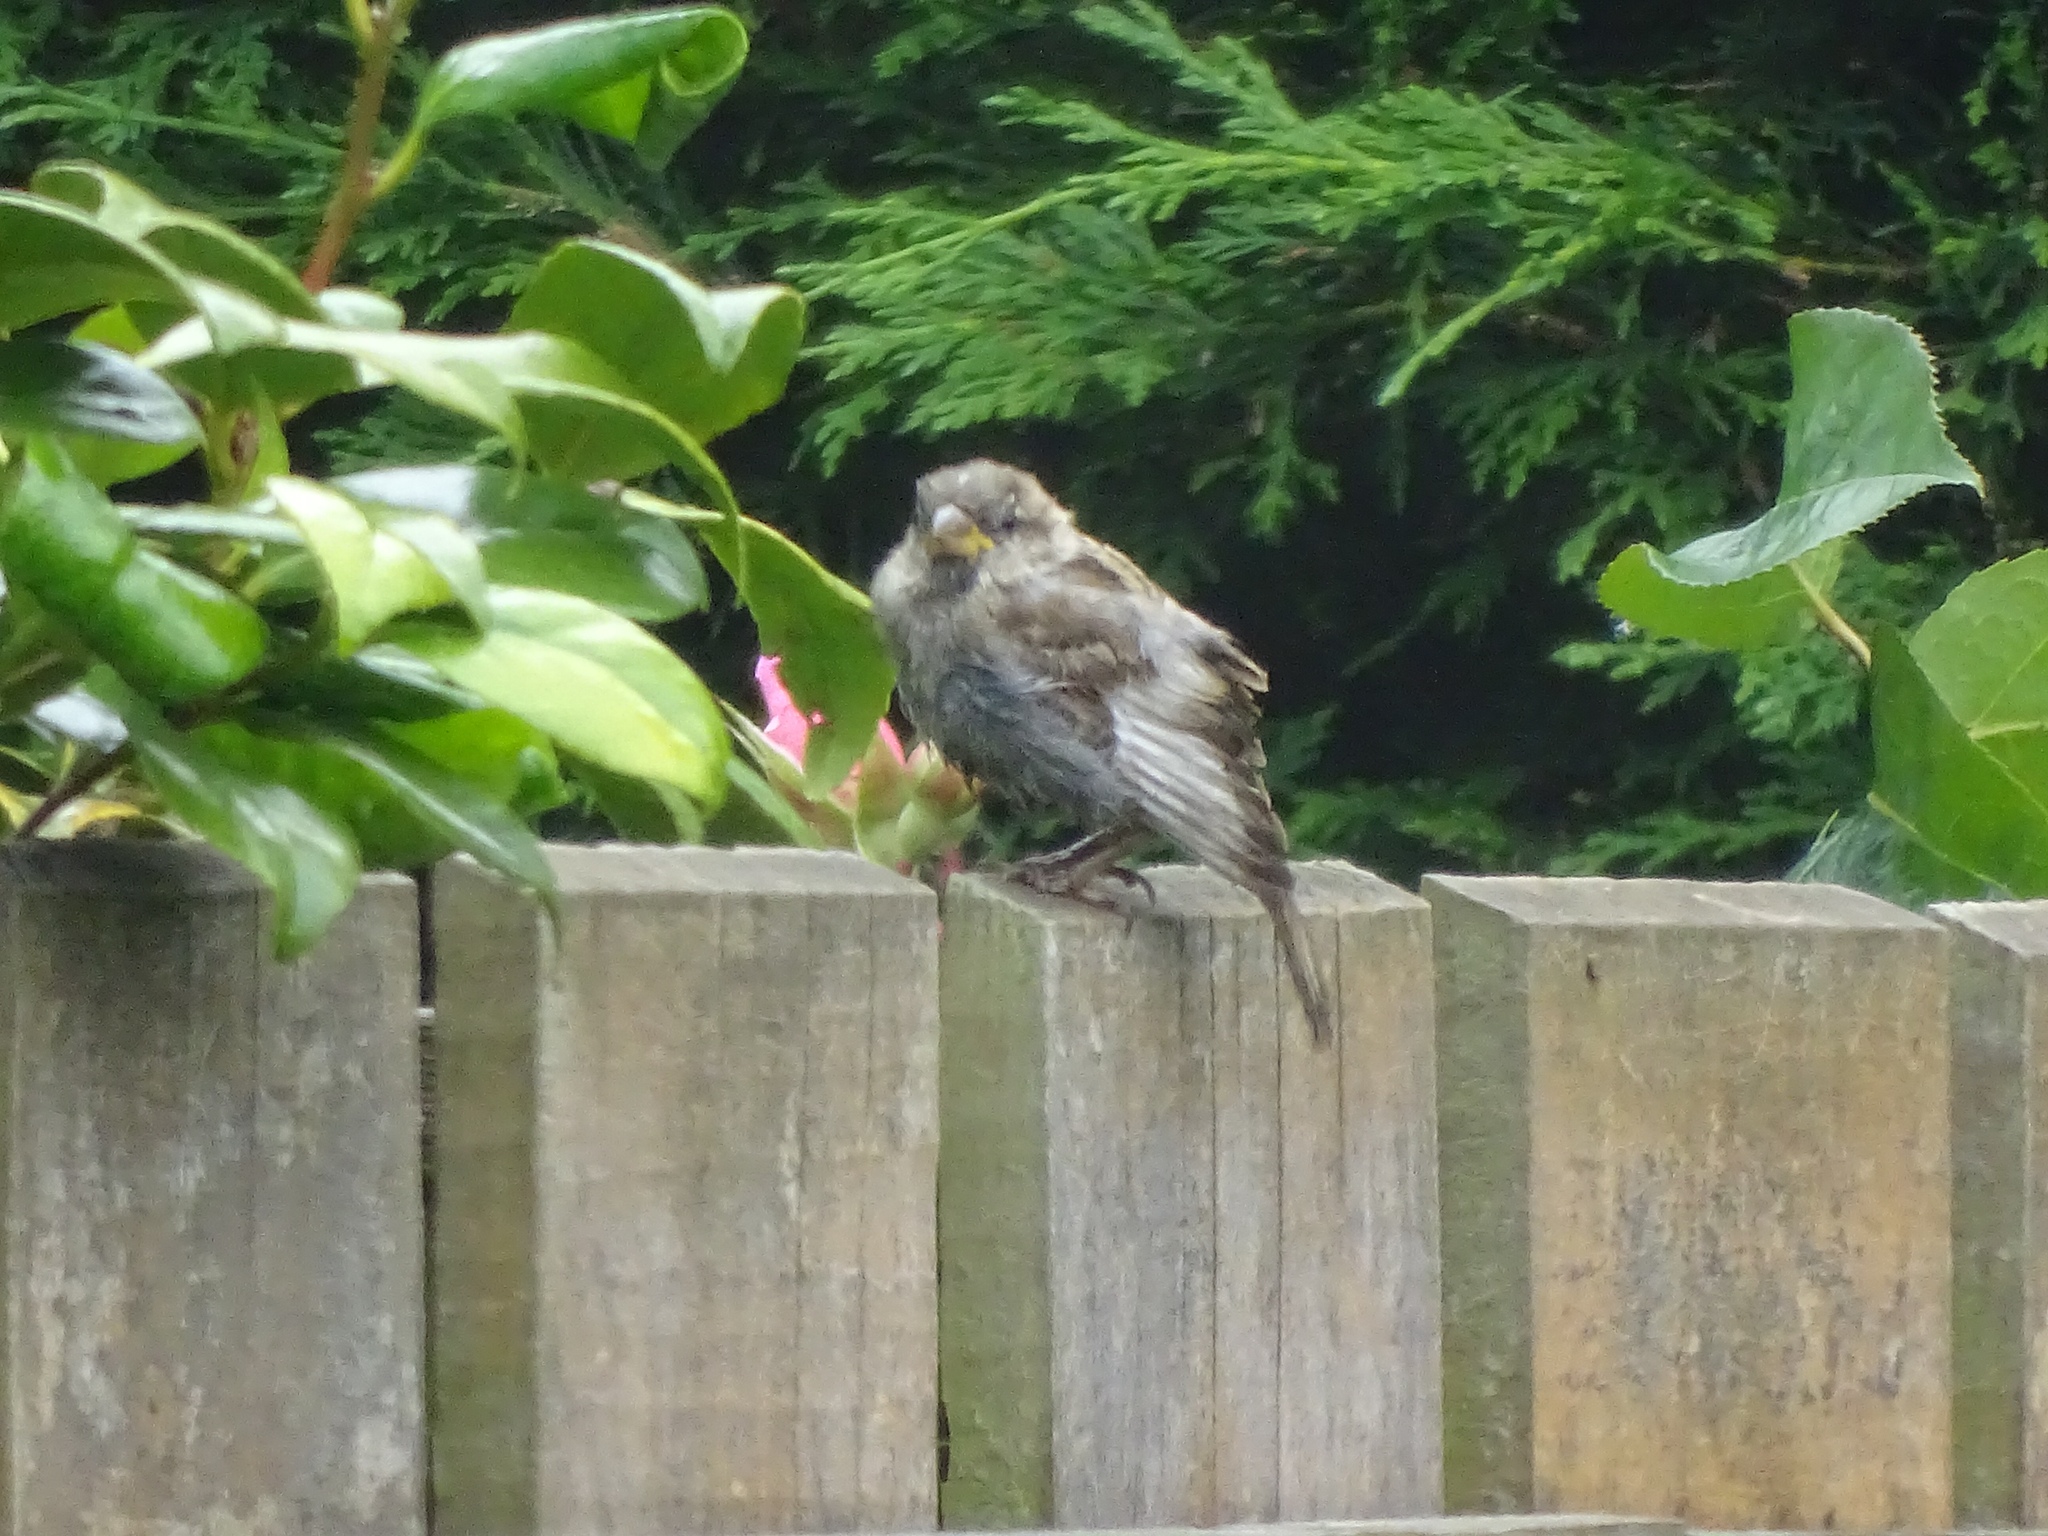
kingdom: Animalia
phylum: Chordata
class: Aves
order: Passeriformes
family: Passeridae
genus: Passer
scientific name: Passer domesticus
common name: House sparrow
